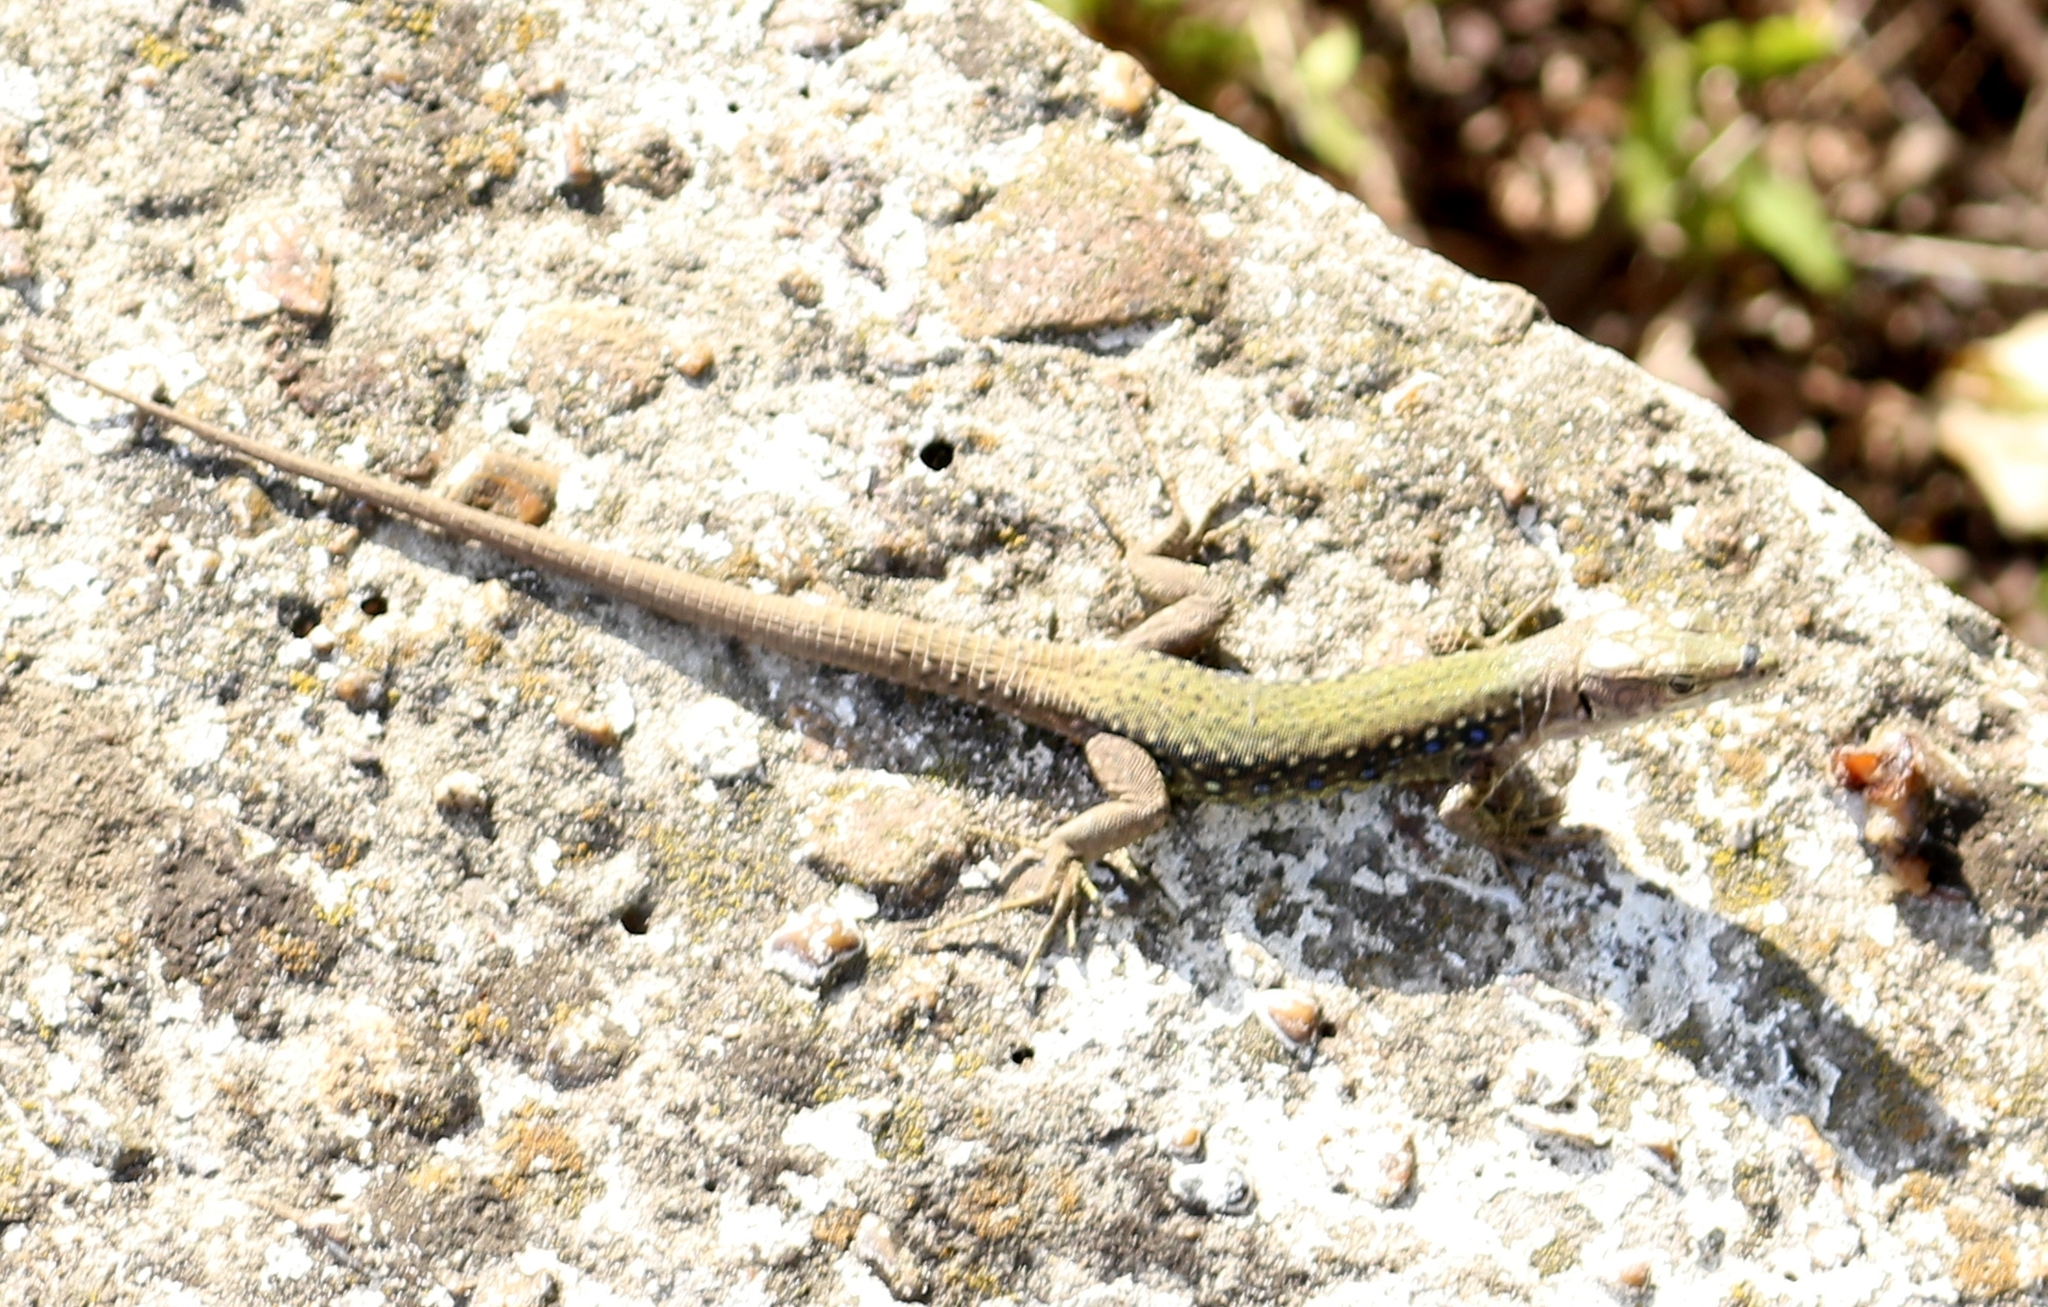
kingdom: Animalia
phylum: Chordata
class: Squamata
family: Lacertidae
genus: Darevskia
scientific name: Darevskia brauneri
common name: Brauner's rock lizard
